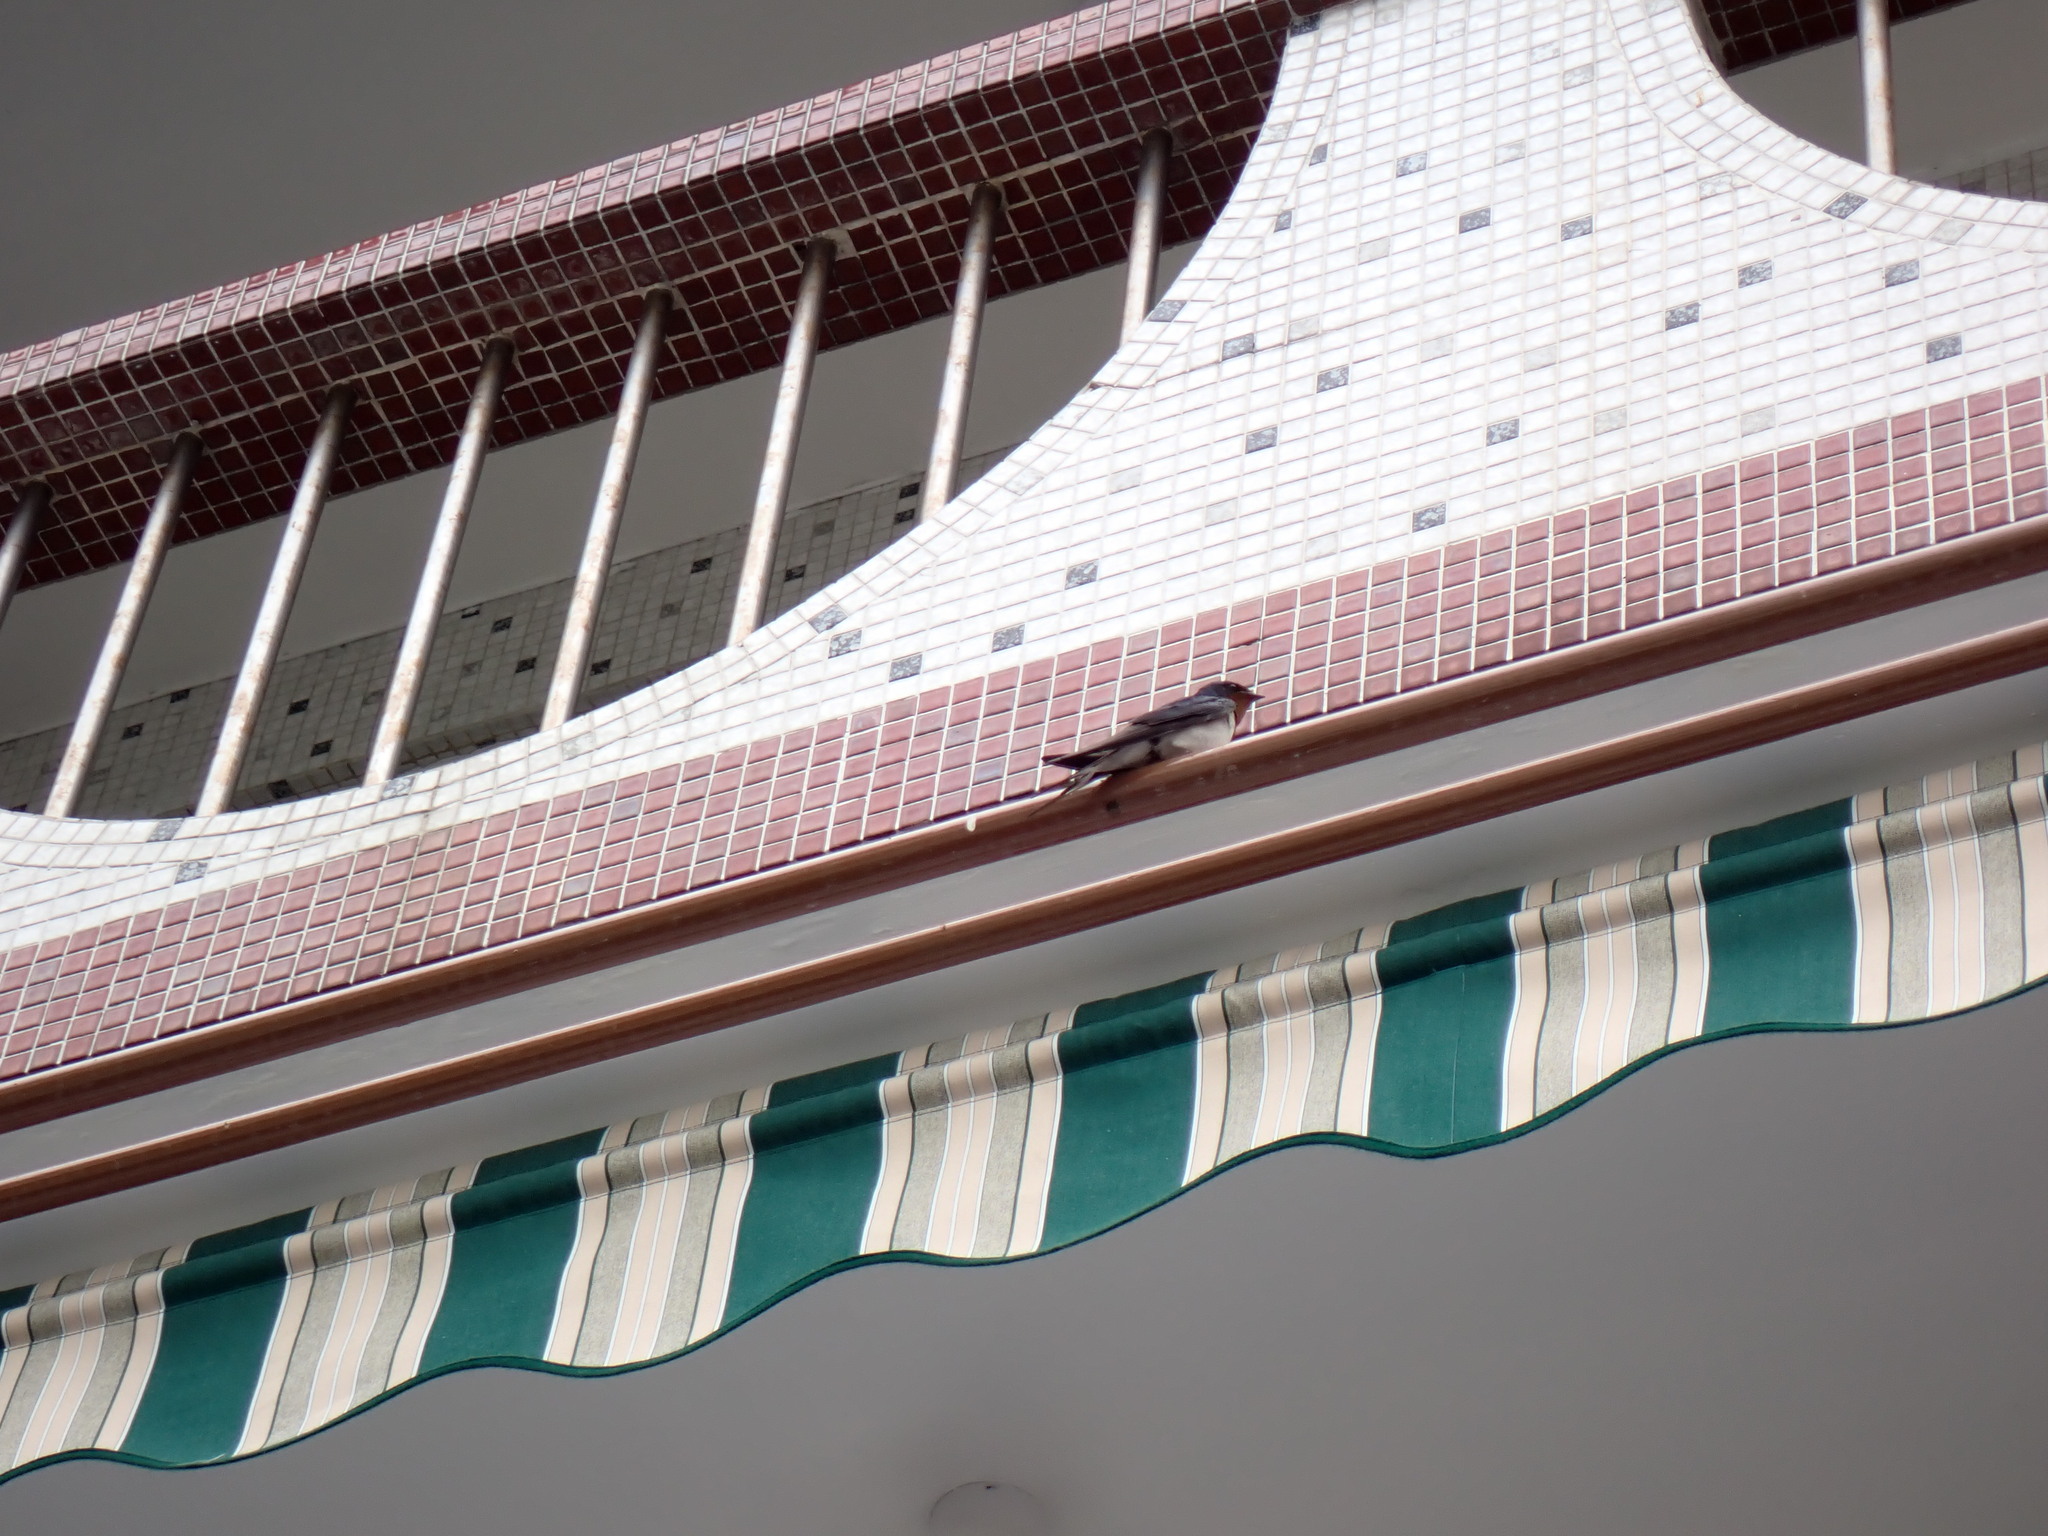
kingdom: Animalia
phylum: Chordata
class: Aves
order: Passeriformes
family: Hirundinidae
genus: Hirundo
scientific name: Hirundo rustica
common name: Barn swallow
